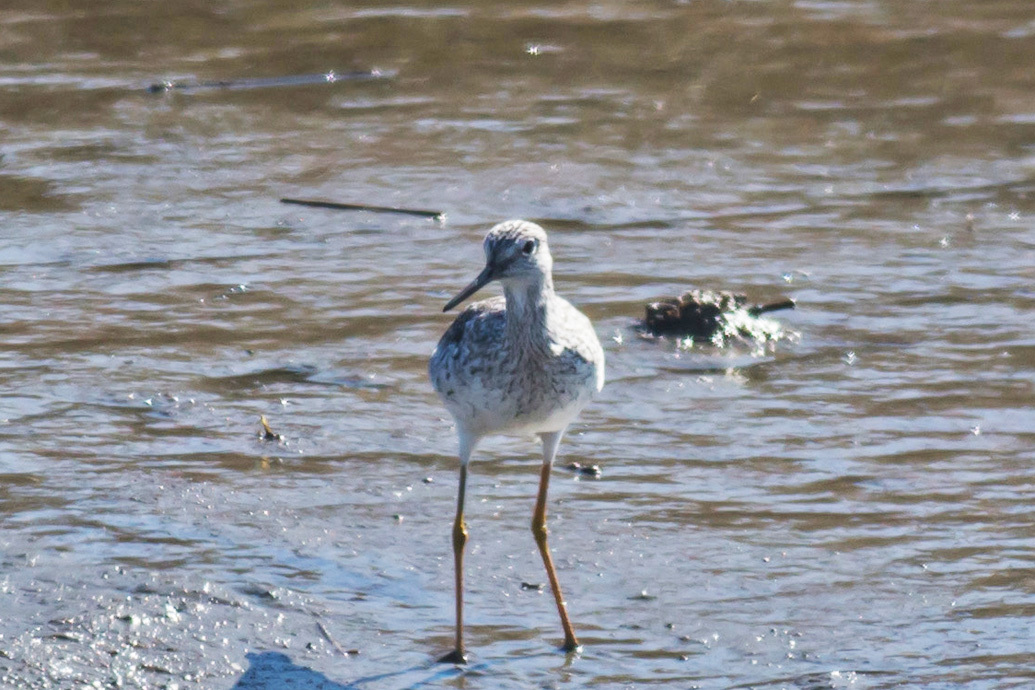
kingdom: Animalia
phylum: Chordata
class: Aves
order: Charadriiformes
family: Scolopacidae
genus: Tringa
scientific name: Tringa melanoleuca
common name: Greater yellowlegs
